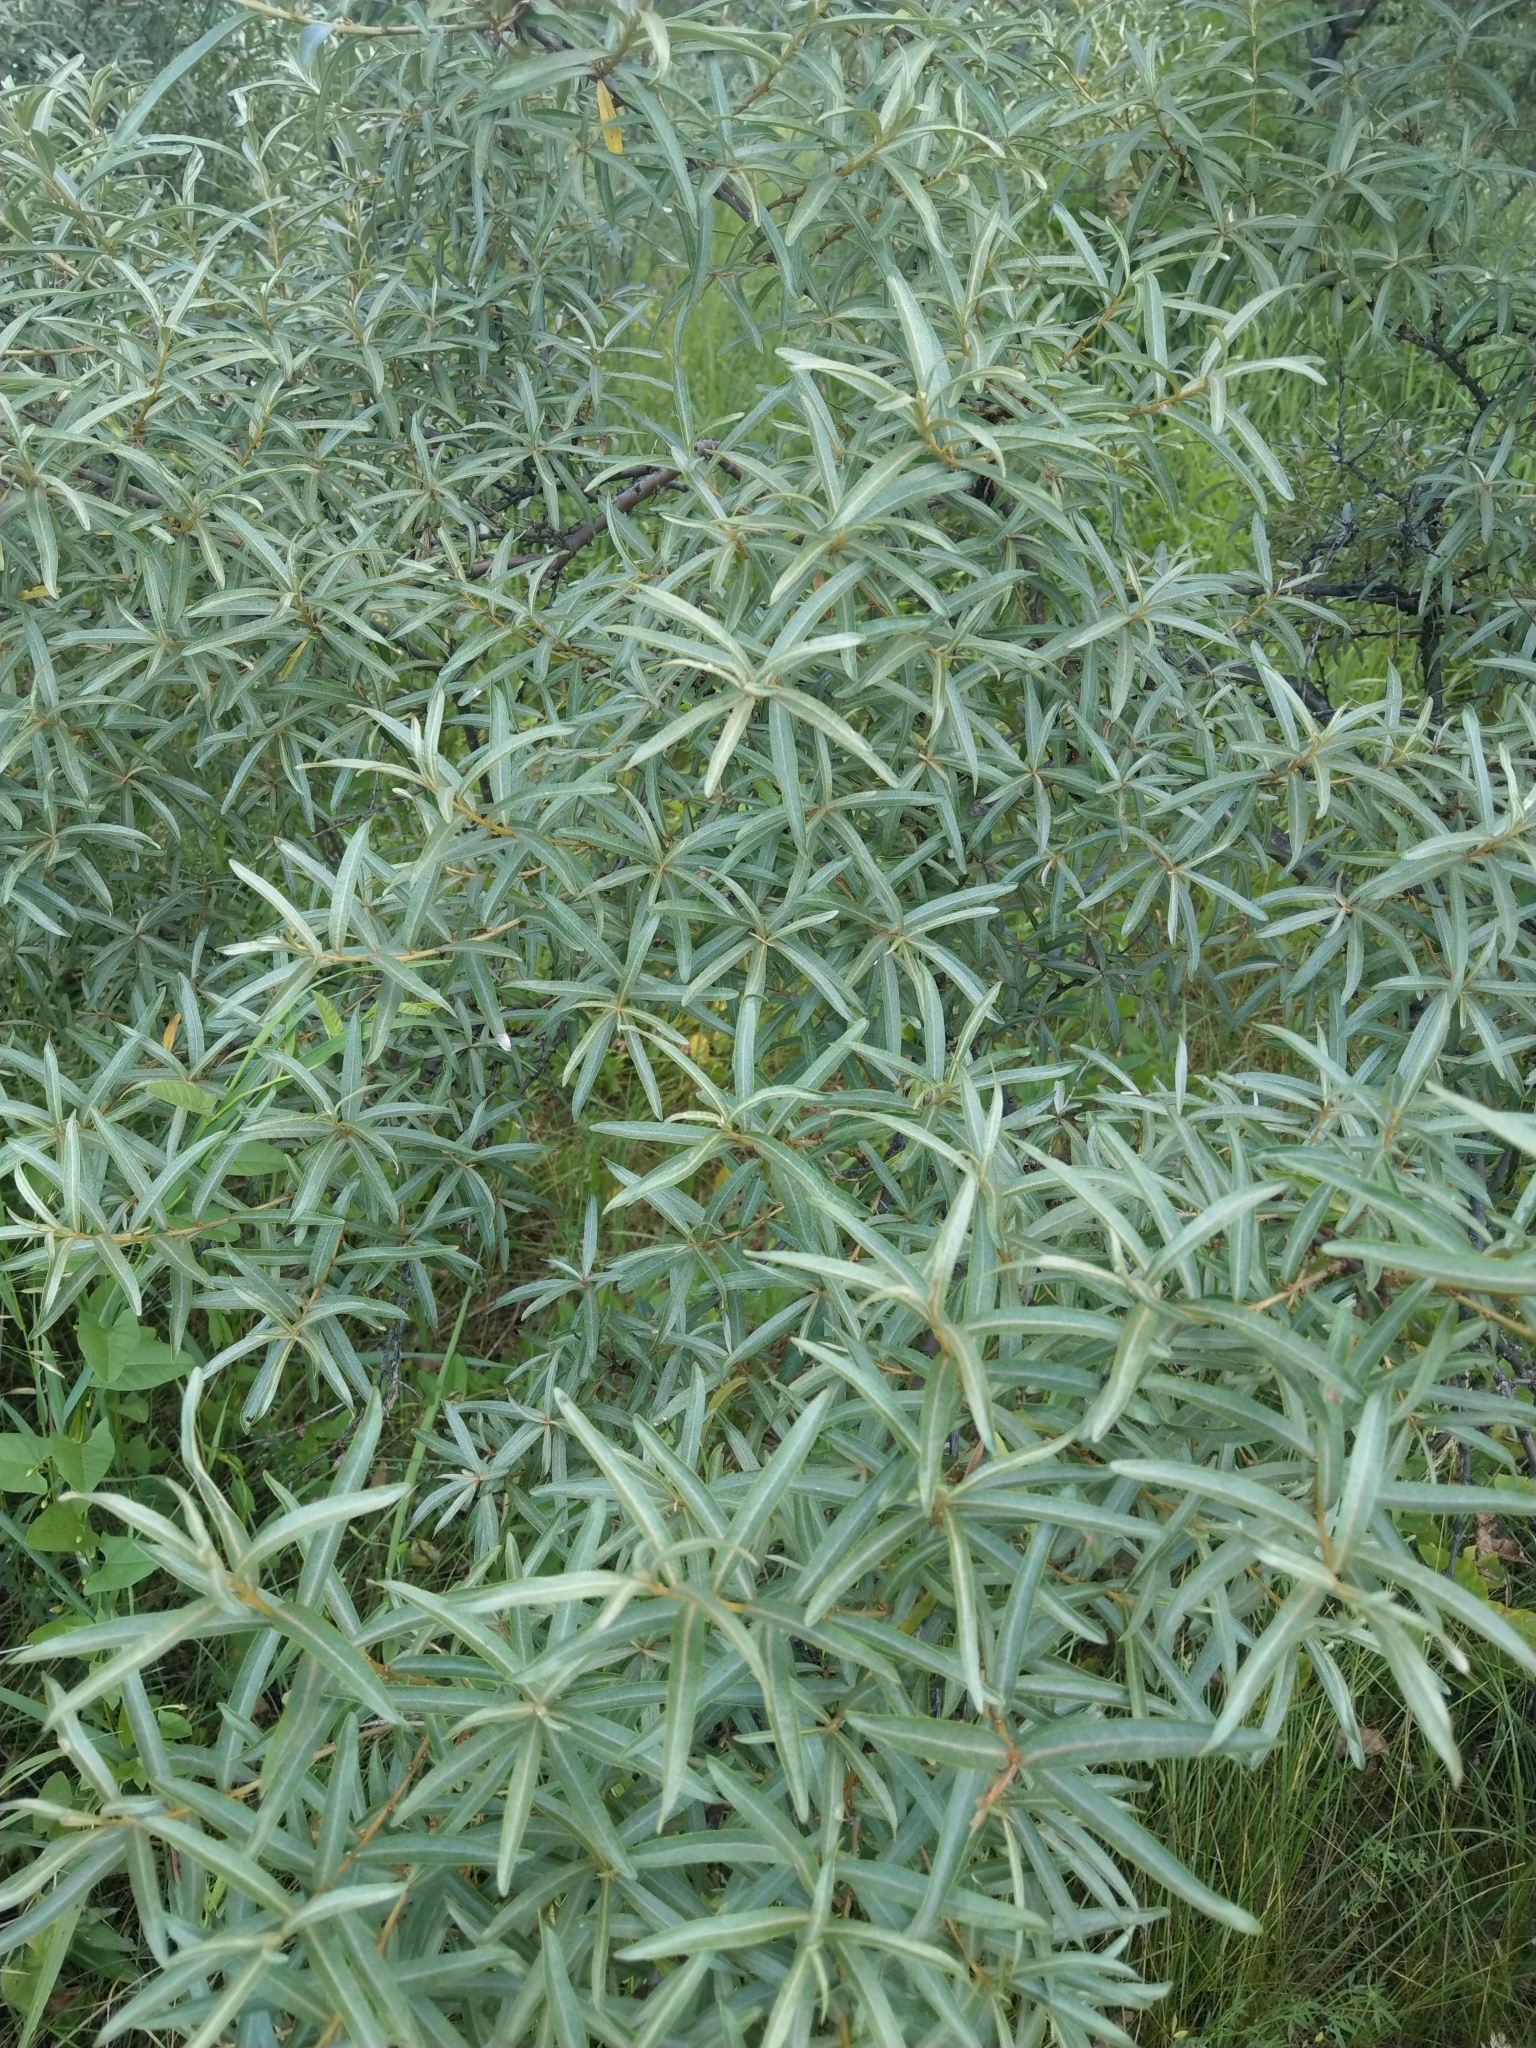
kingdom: Plantae
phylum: Tracheophyta
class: Magnoliopsida
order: Rosales
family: Elaeagnaceae
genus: Hippophae
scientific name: Hippophae rhamnoides
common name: Sea-buckthorn
